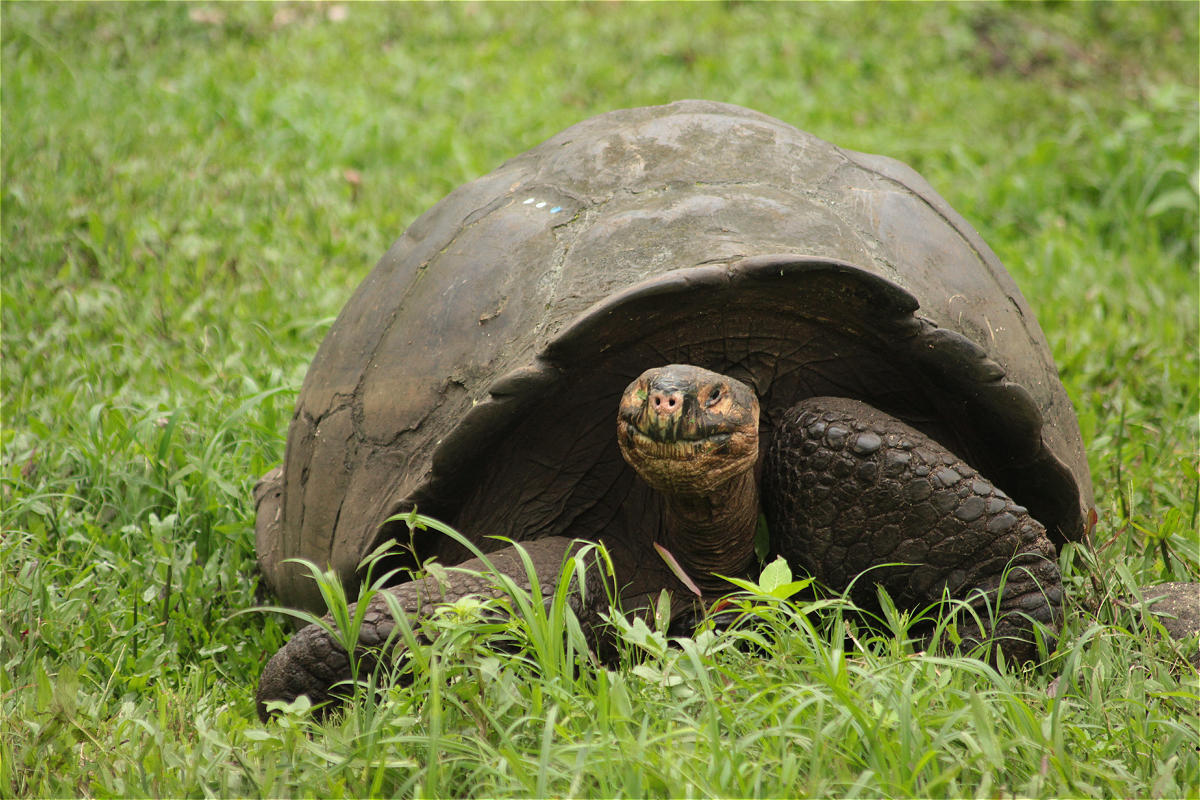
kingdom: Animalia
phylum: Chordata
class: Testudines
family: Testudinidae
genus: Chelonoidis
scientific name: Chelonoidis porteri
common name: Indefatigable island giant tortoise
